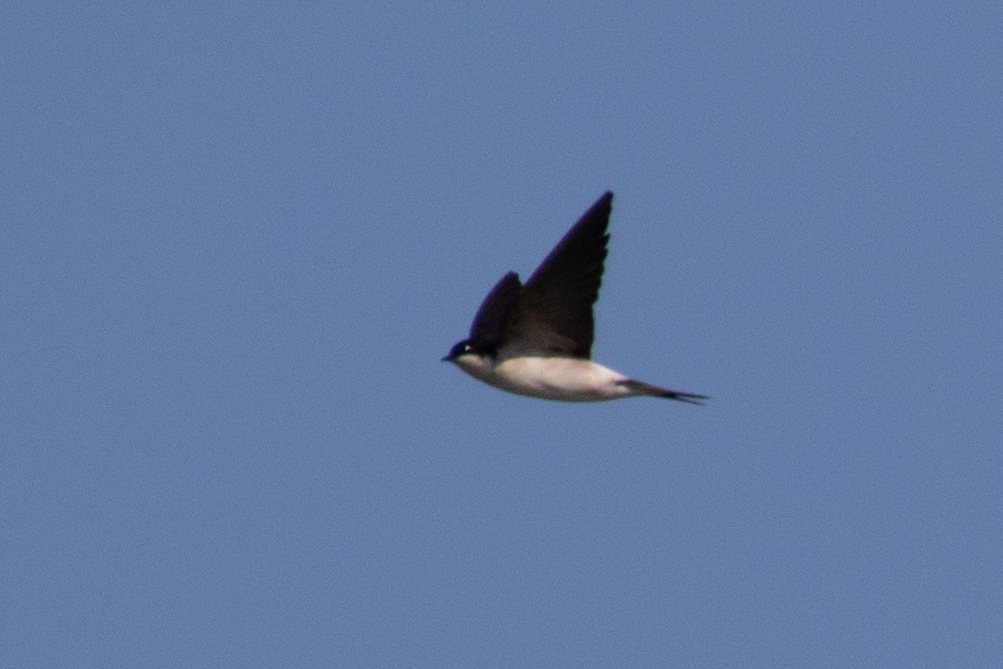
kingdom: Animalia
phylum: Chordata
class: Aves
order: Passeriformes
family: Hirundinidae
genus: Delichon
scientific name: Delichon urbicum
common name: Common house martin
